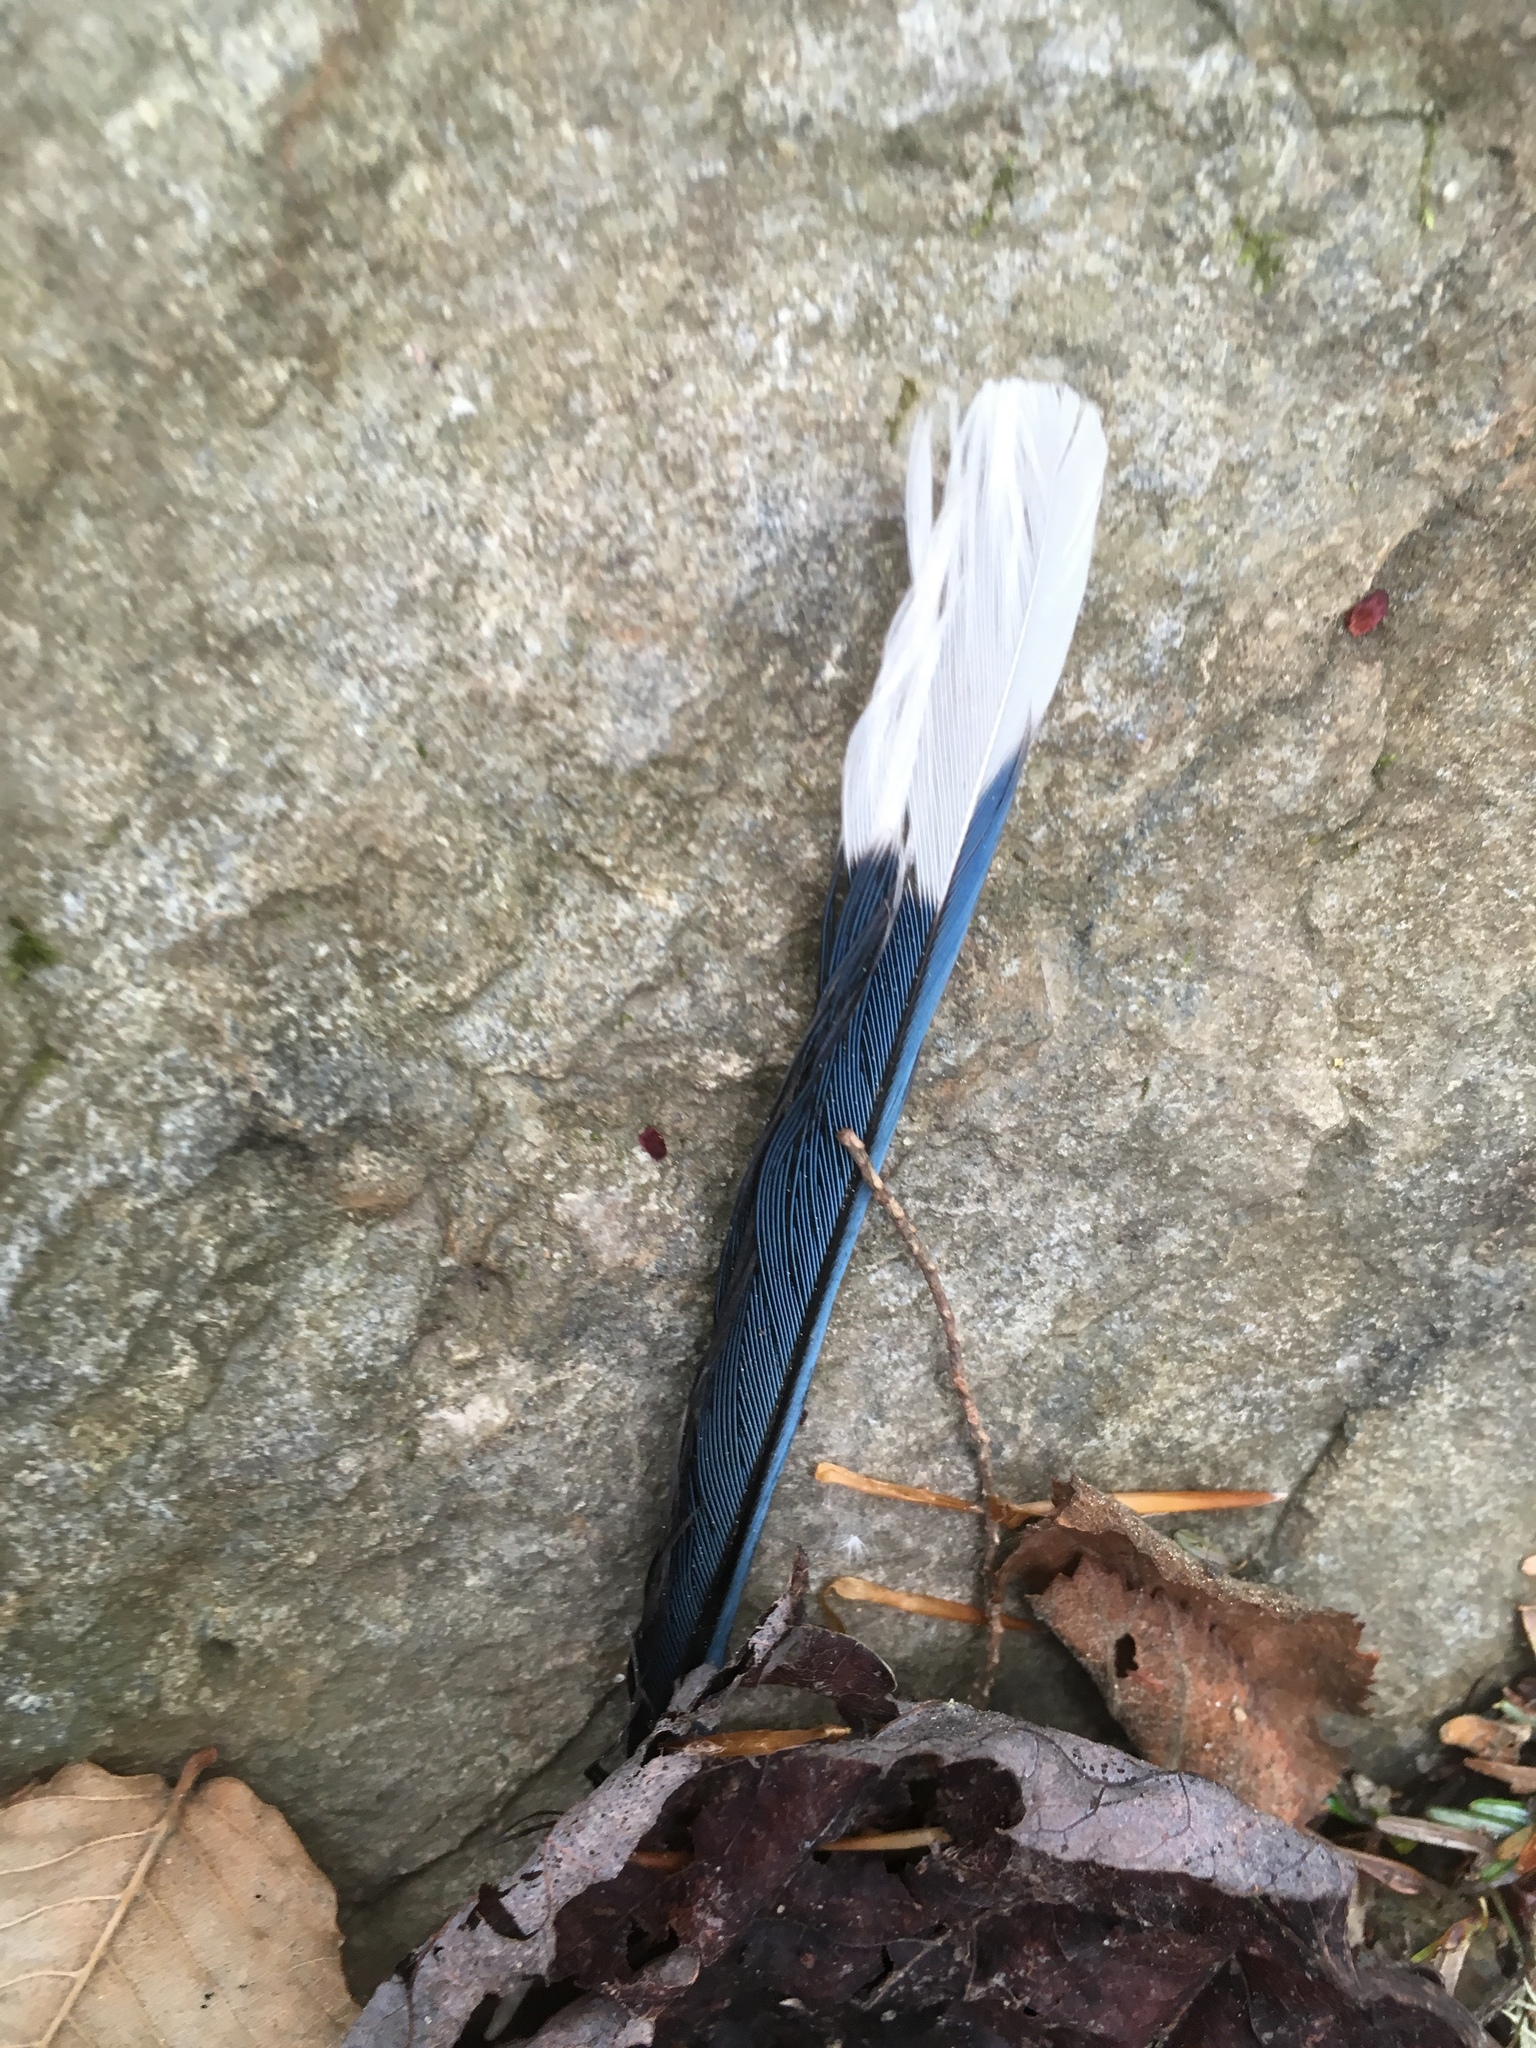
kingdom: Animalia
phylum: Chordata
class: Aves
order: Passeriformes
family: Corvidae
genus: Cyanocitta
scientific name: Cyanocitta cristata
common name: Blue jay
